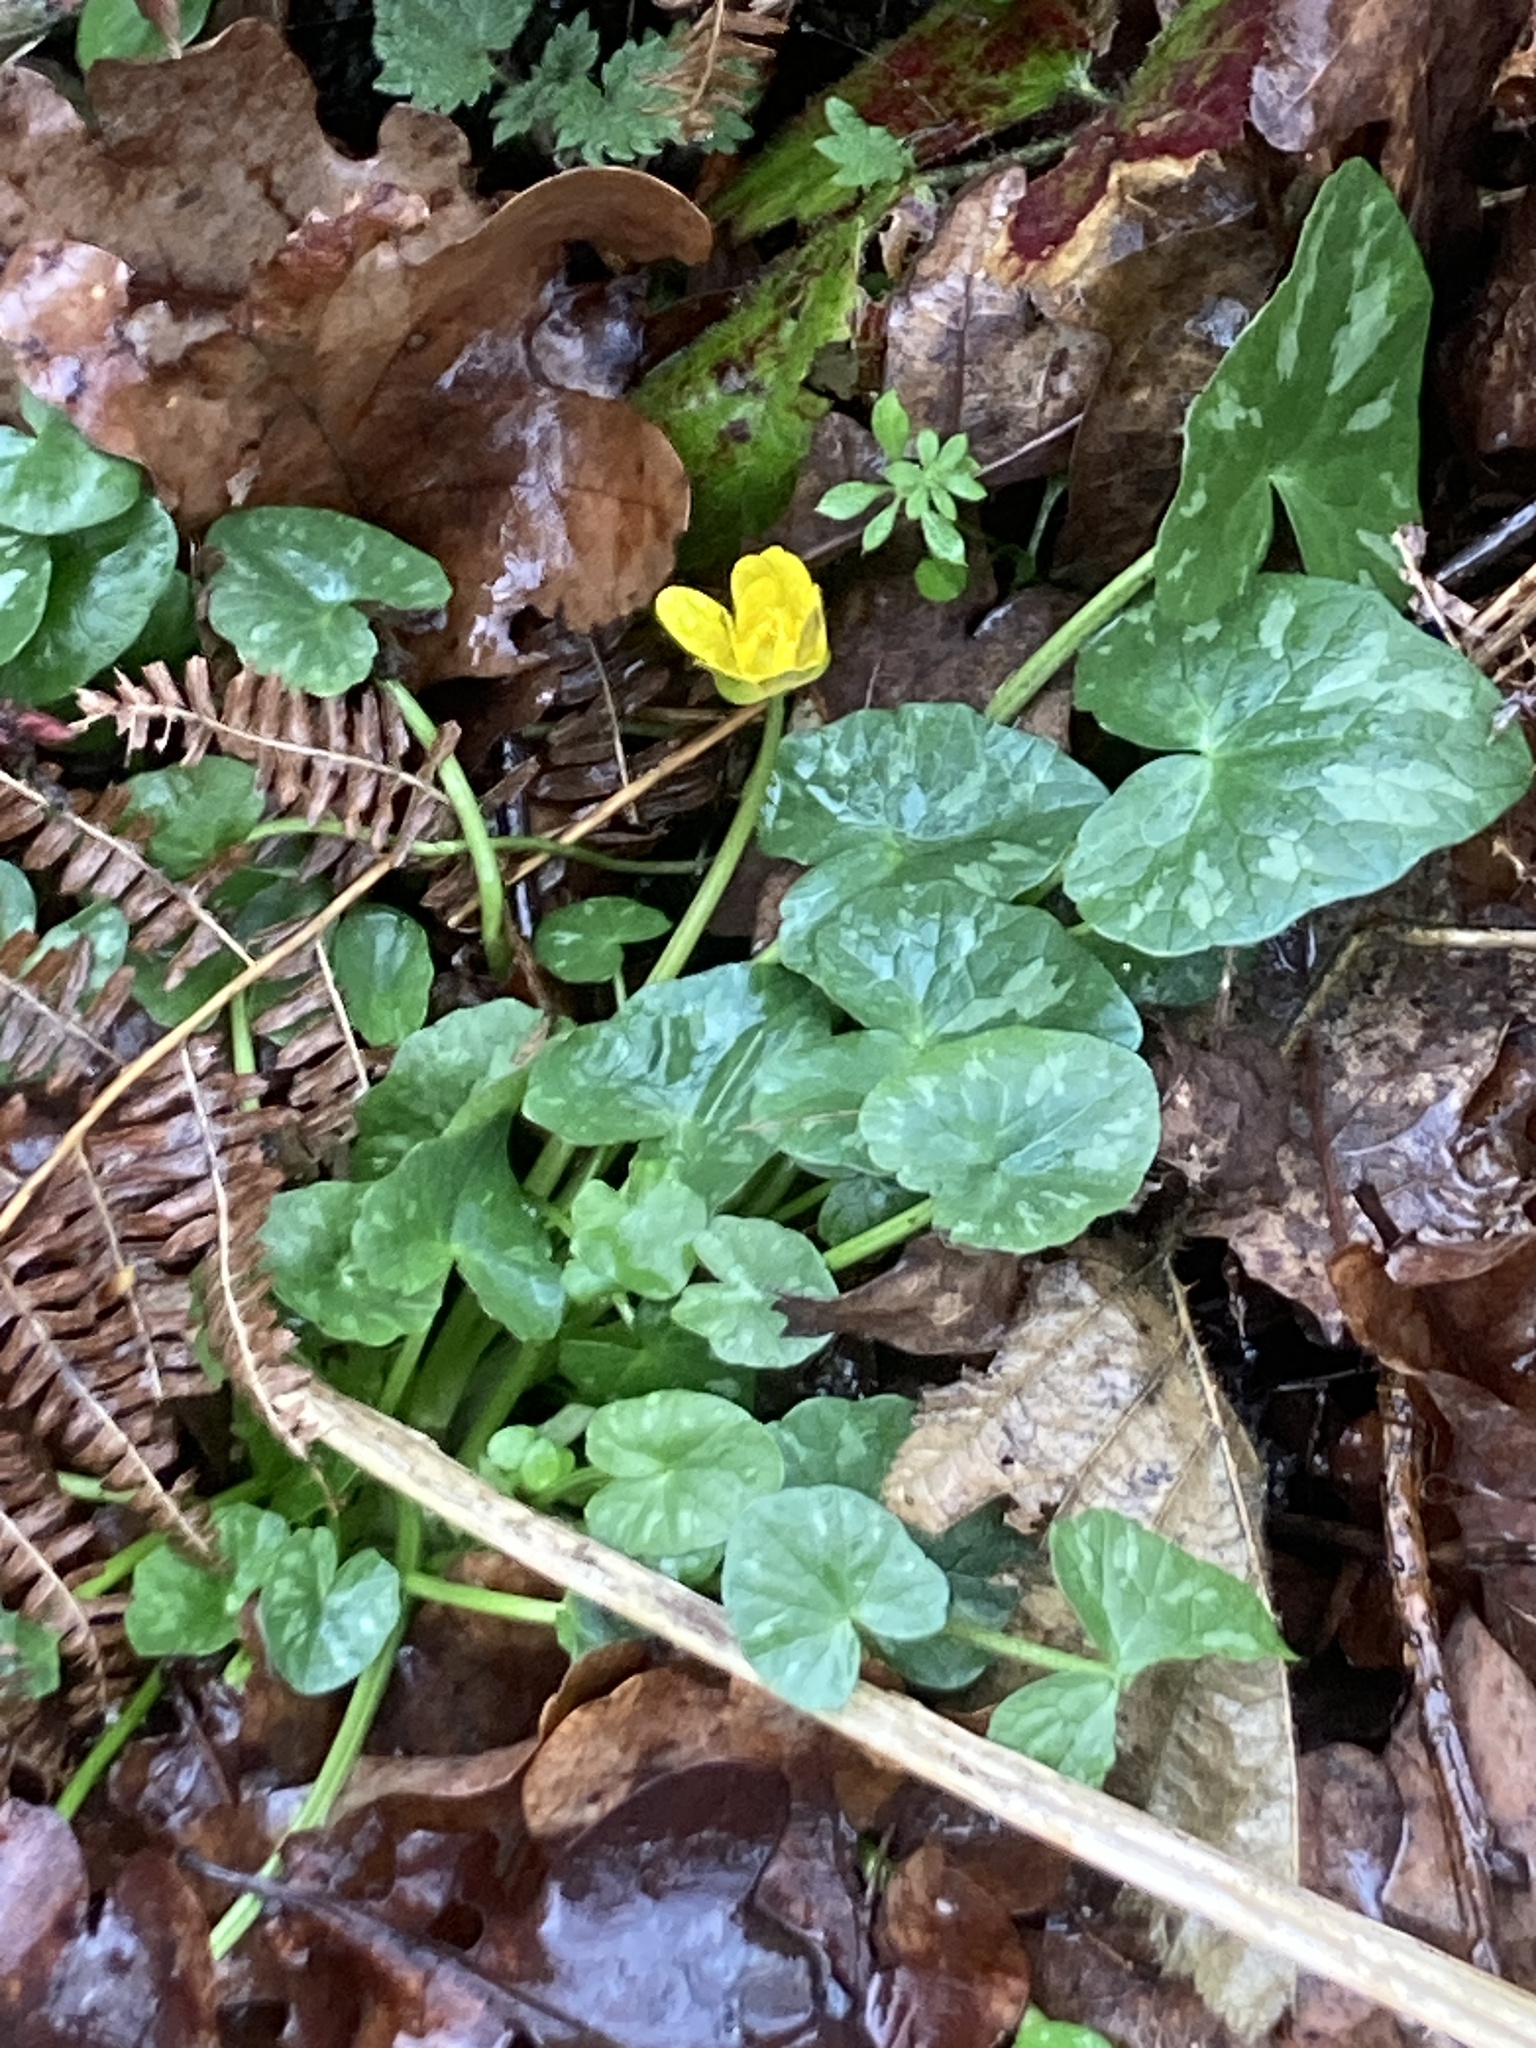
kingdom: Plantae
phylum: Tracheophyta
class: Magnoliopsida
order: Ranunculales
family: Ranunculaceae
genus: Ficaria
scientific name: Ficaria verna
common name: Lesser celandine
